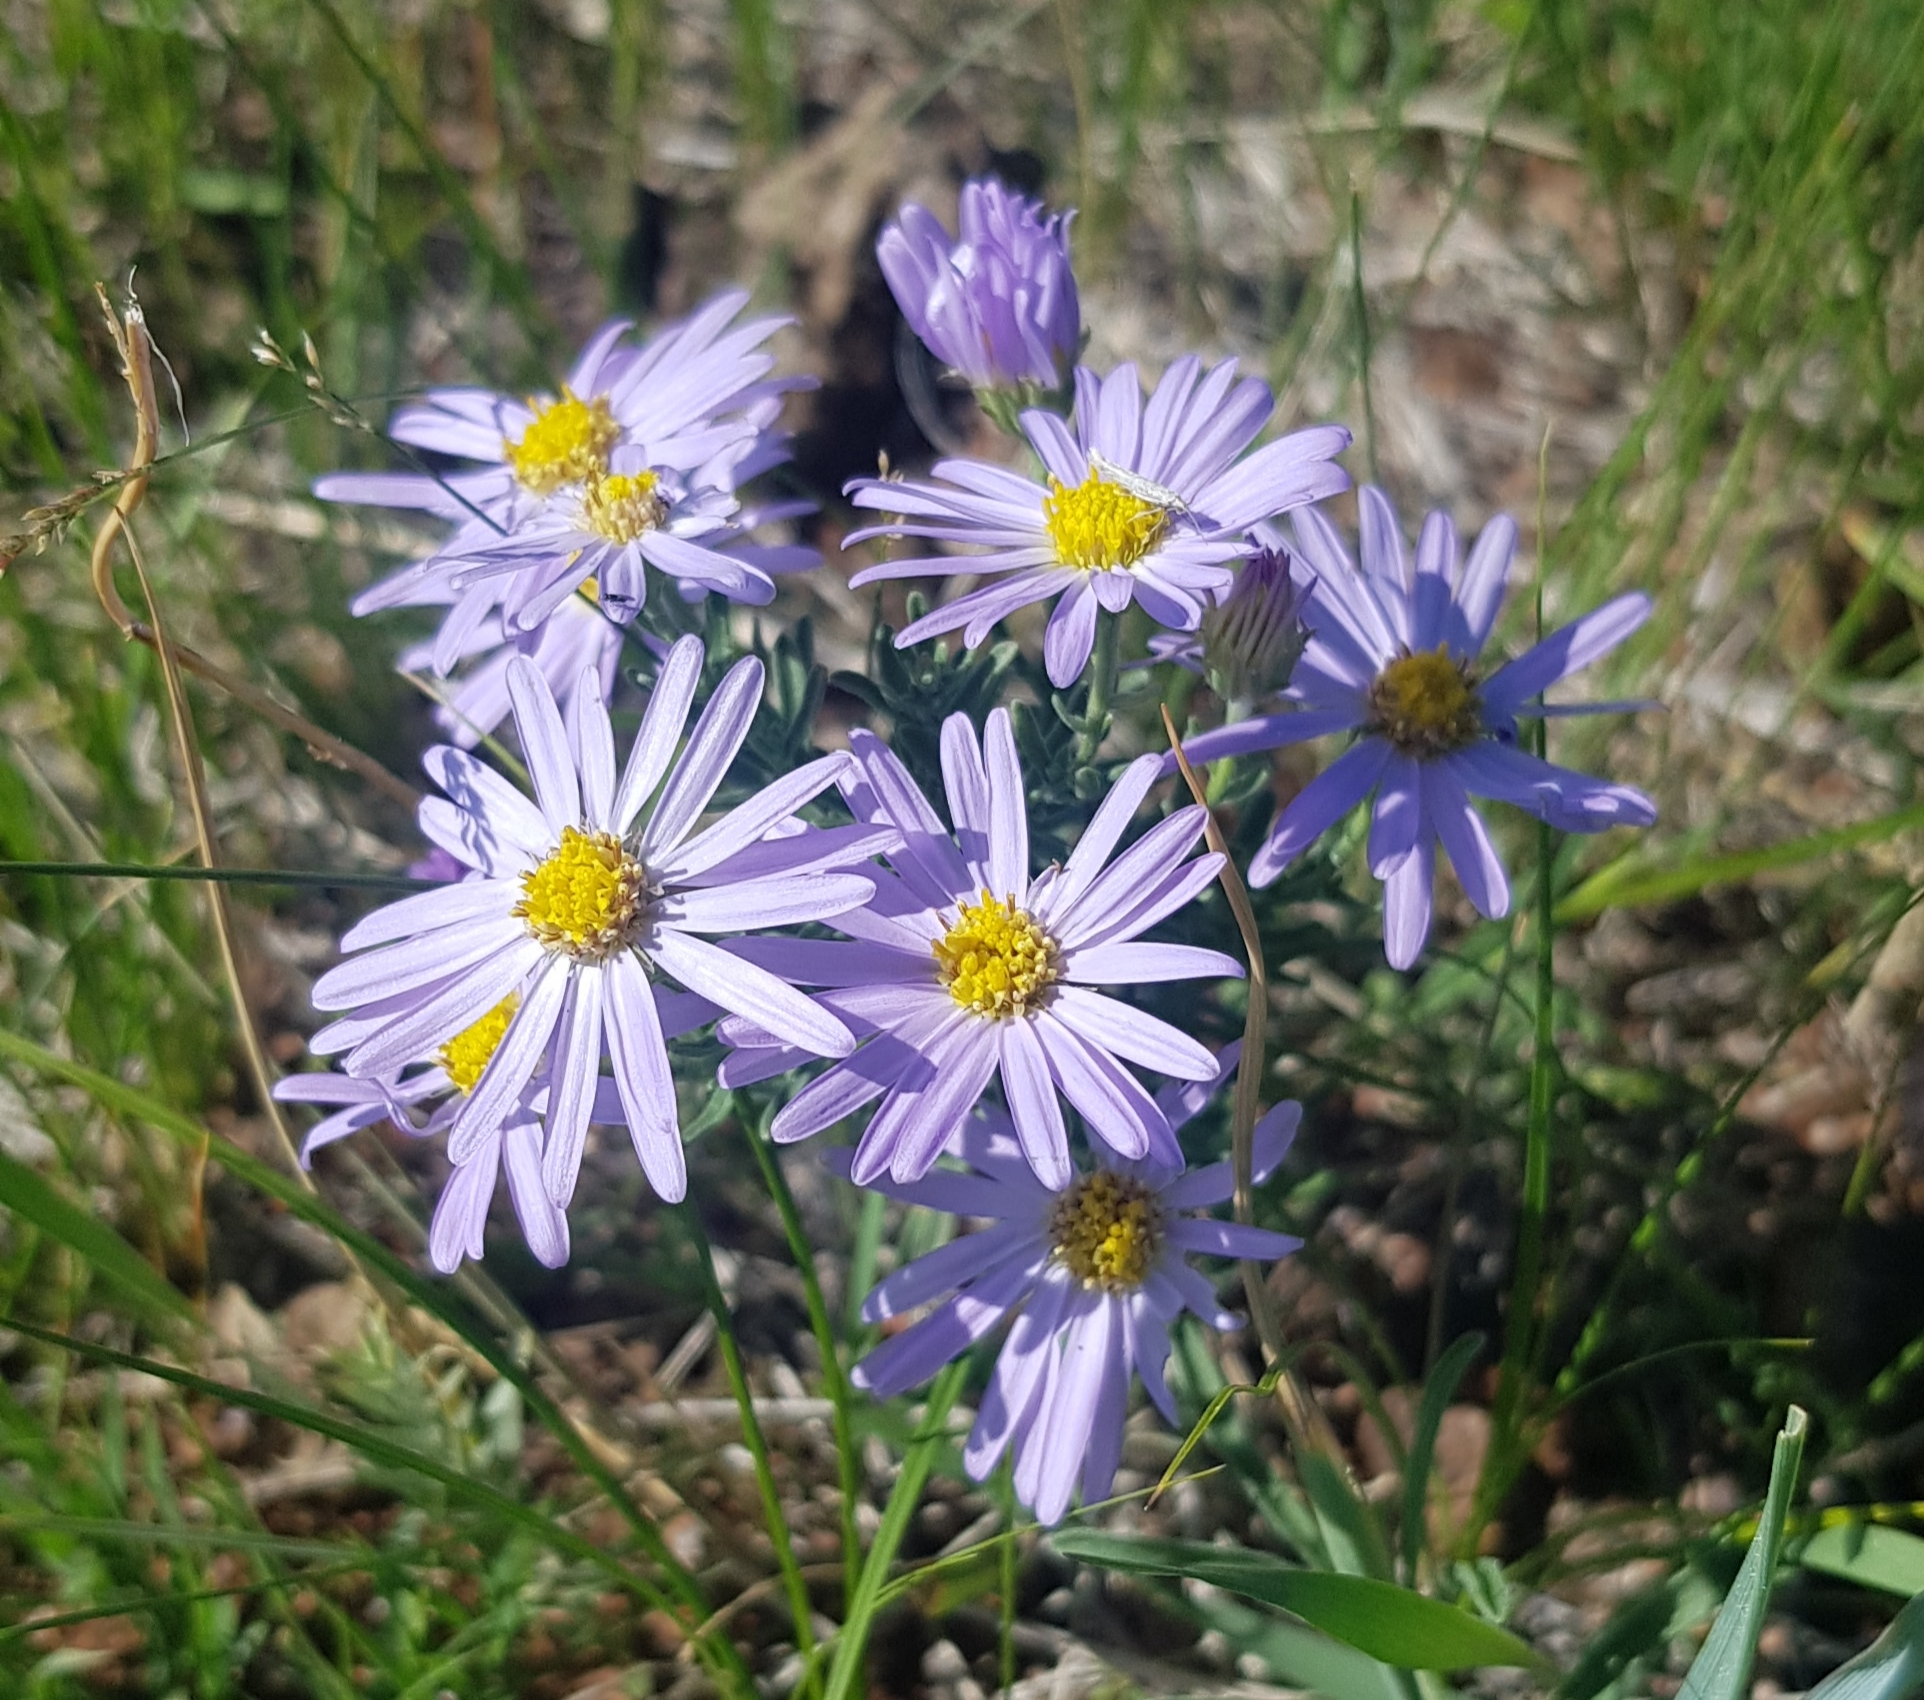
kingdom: Plantae
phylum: Tracheophyta
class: Magnoliopsida
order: Asterales
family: Asteraceae
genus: Heteropappus
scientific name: Heteropappus altaicus
